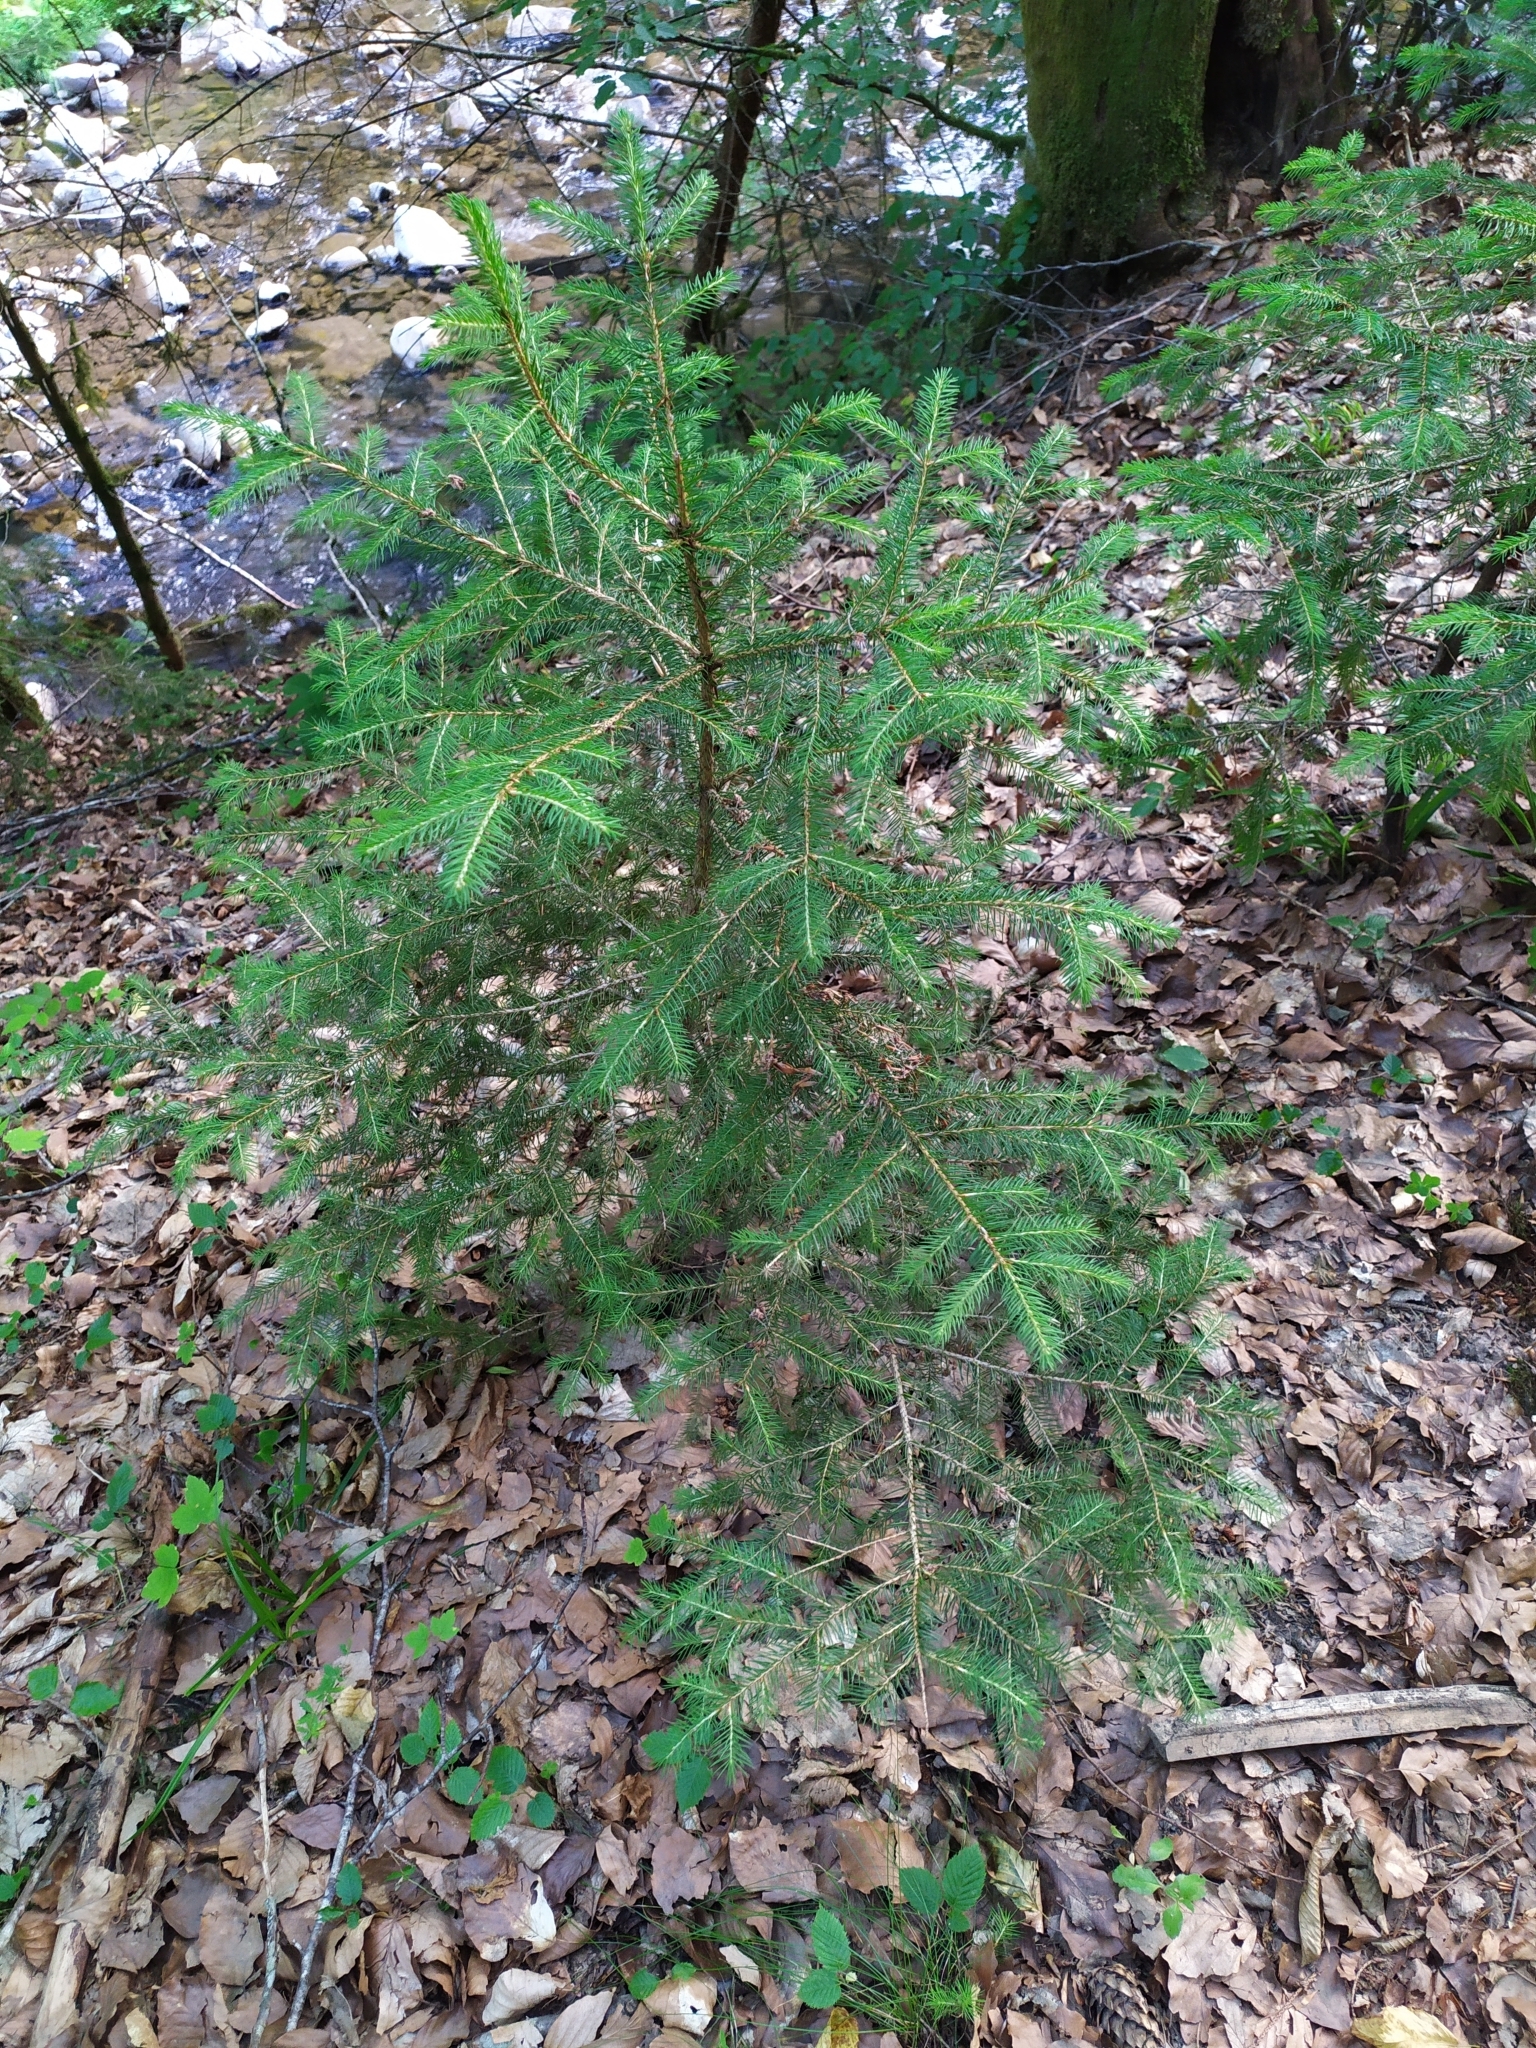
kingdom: Plantae
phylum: Tracheophyta
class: Pinopsida
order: Pinales
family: Pinaceae
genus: Picea
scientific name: Picea abies
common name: Norway spruce
